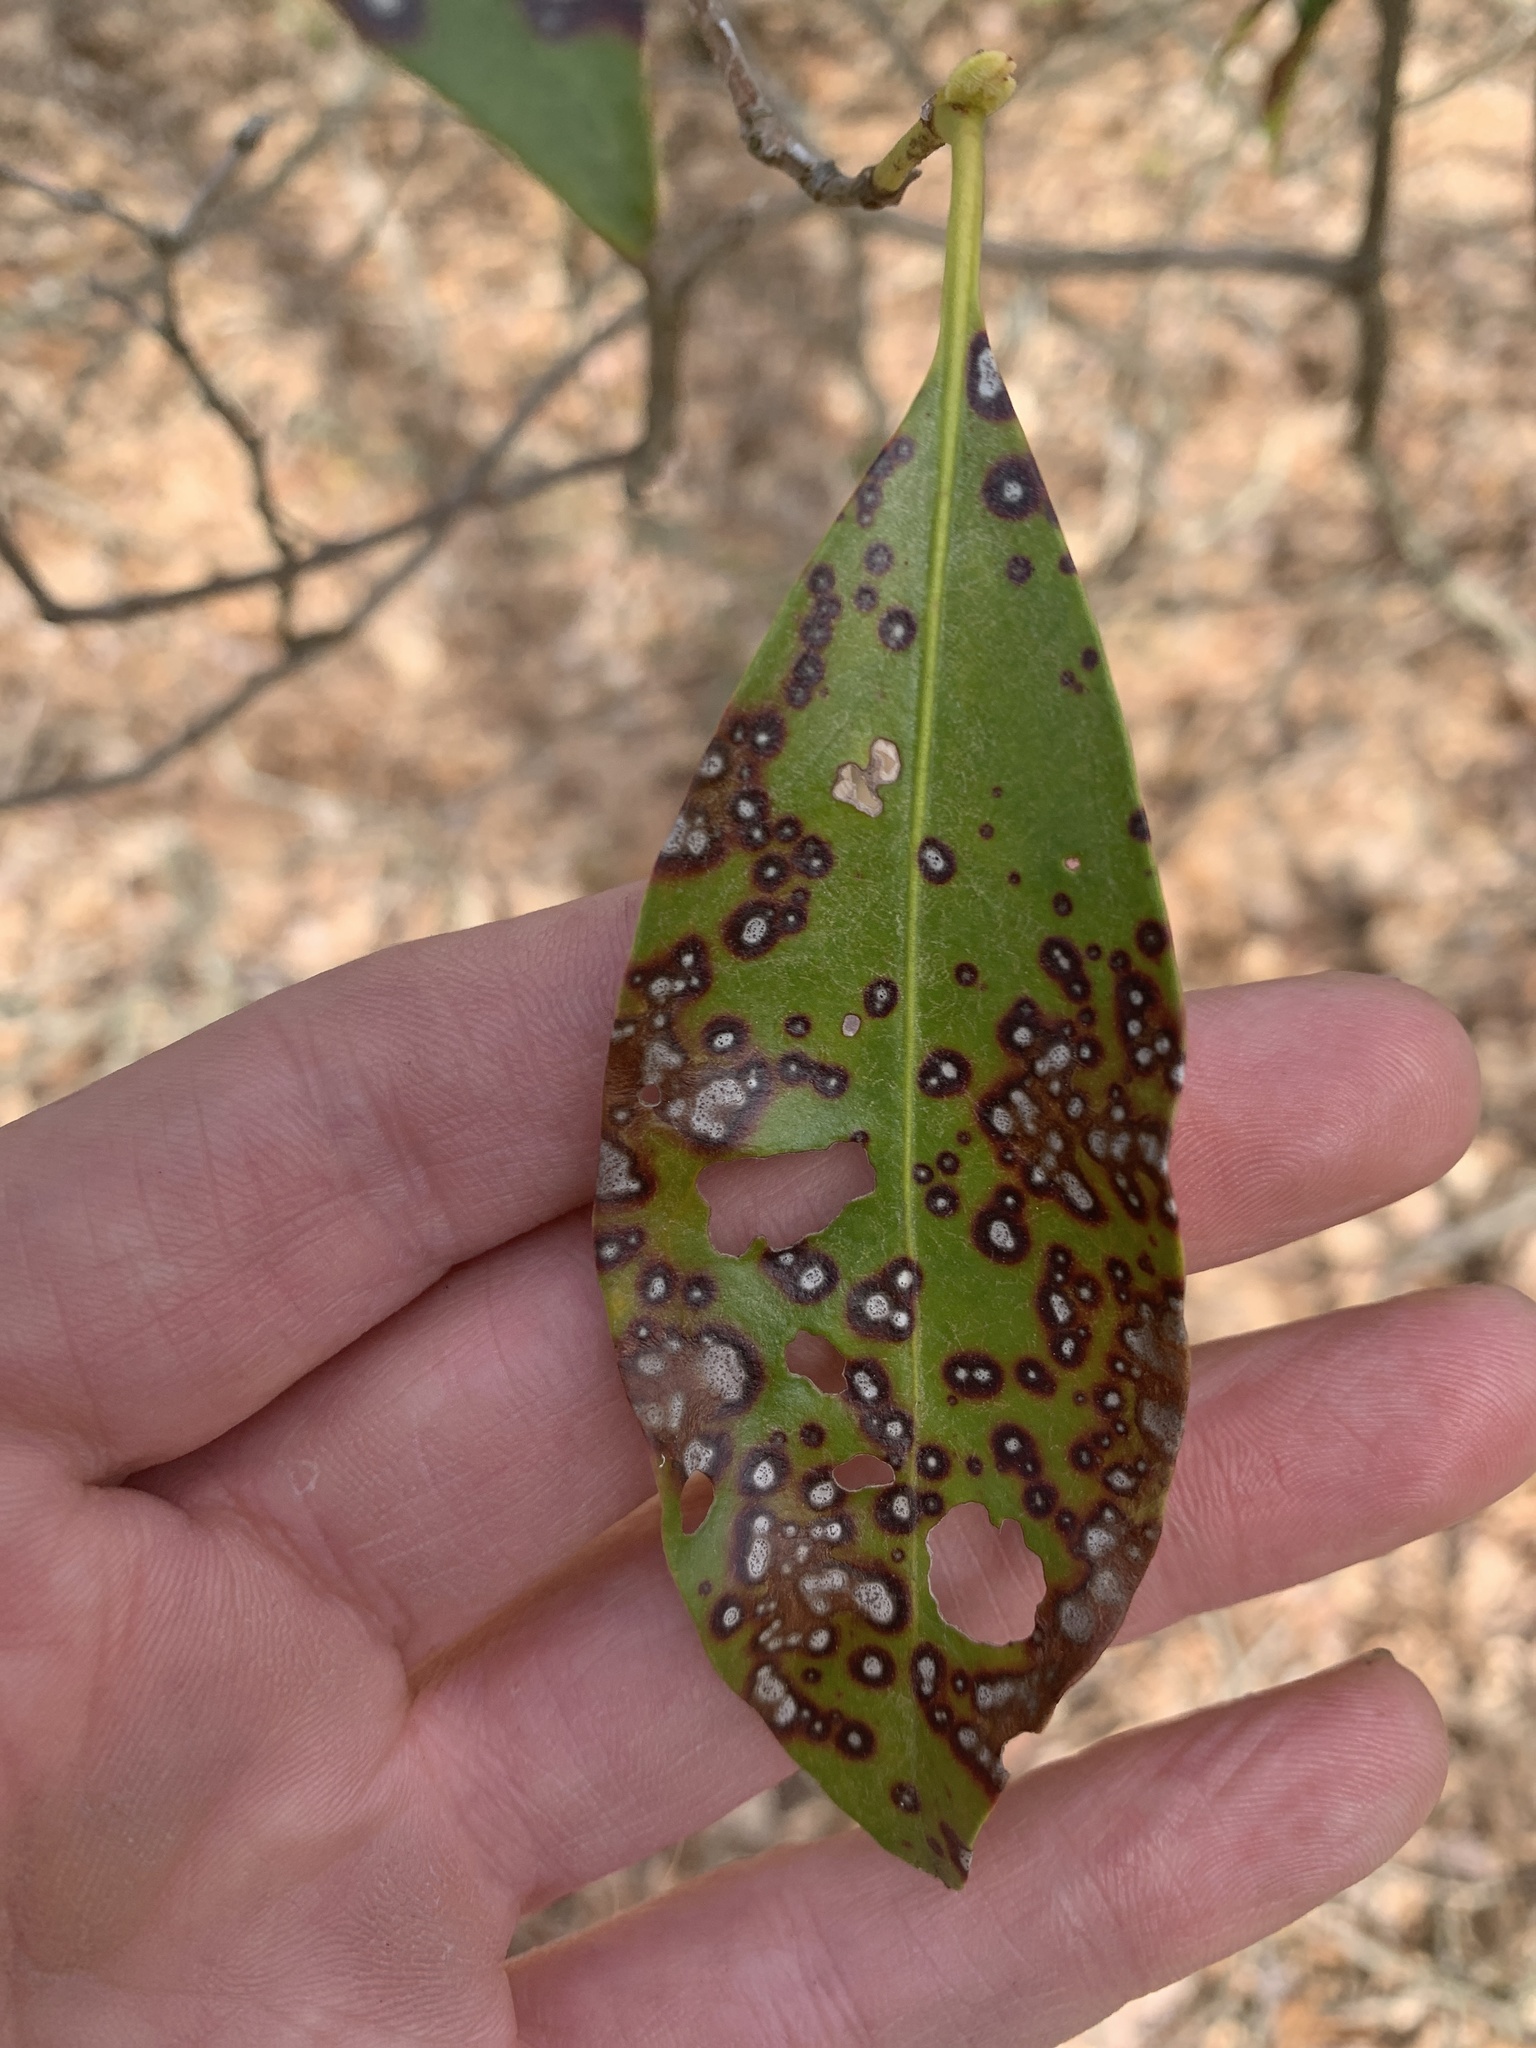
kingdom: Fungi
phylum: Ascomycota
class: Dothideomycetes
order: Mycosphaerellales
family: Mycosphaerellaceae
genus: Mycosphaerella
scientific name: Mycosphaerella colorata
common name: Mountain laurel leaf spot
